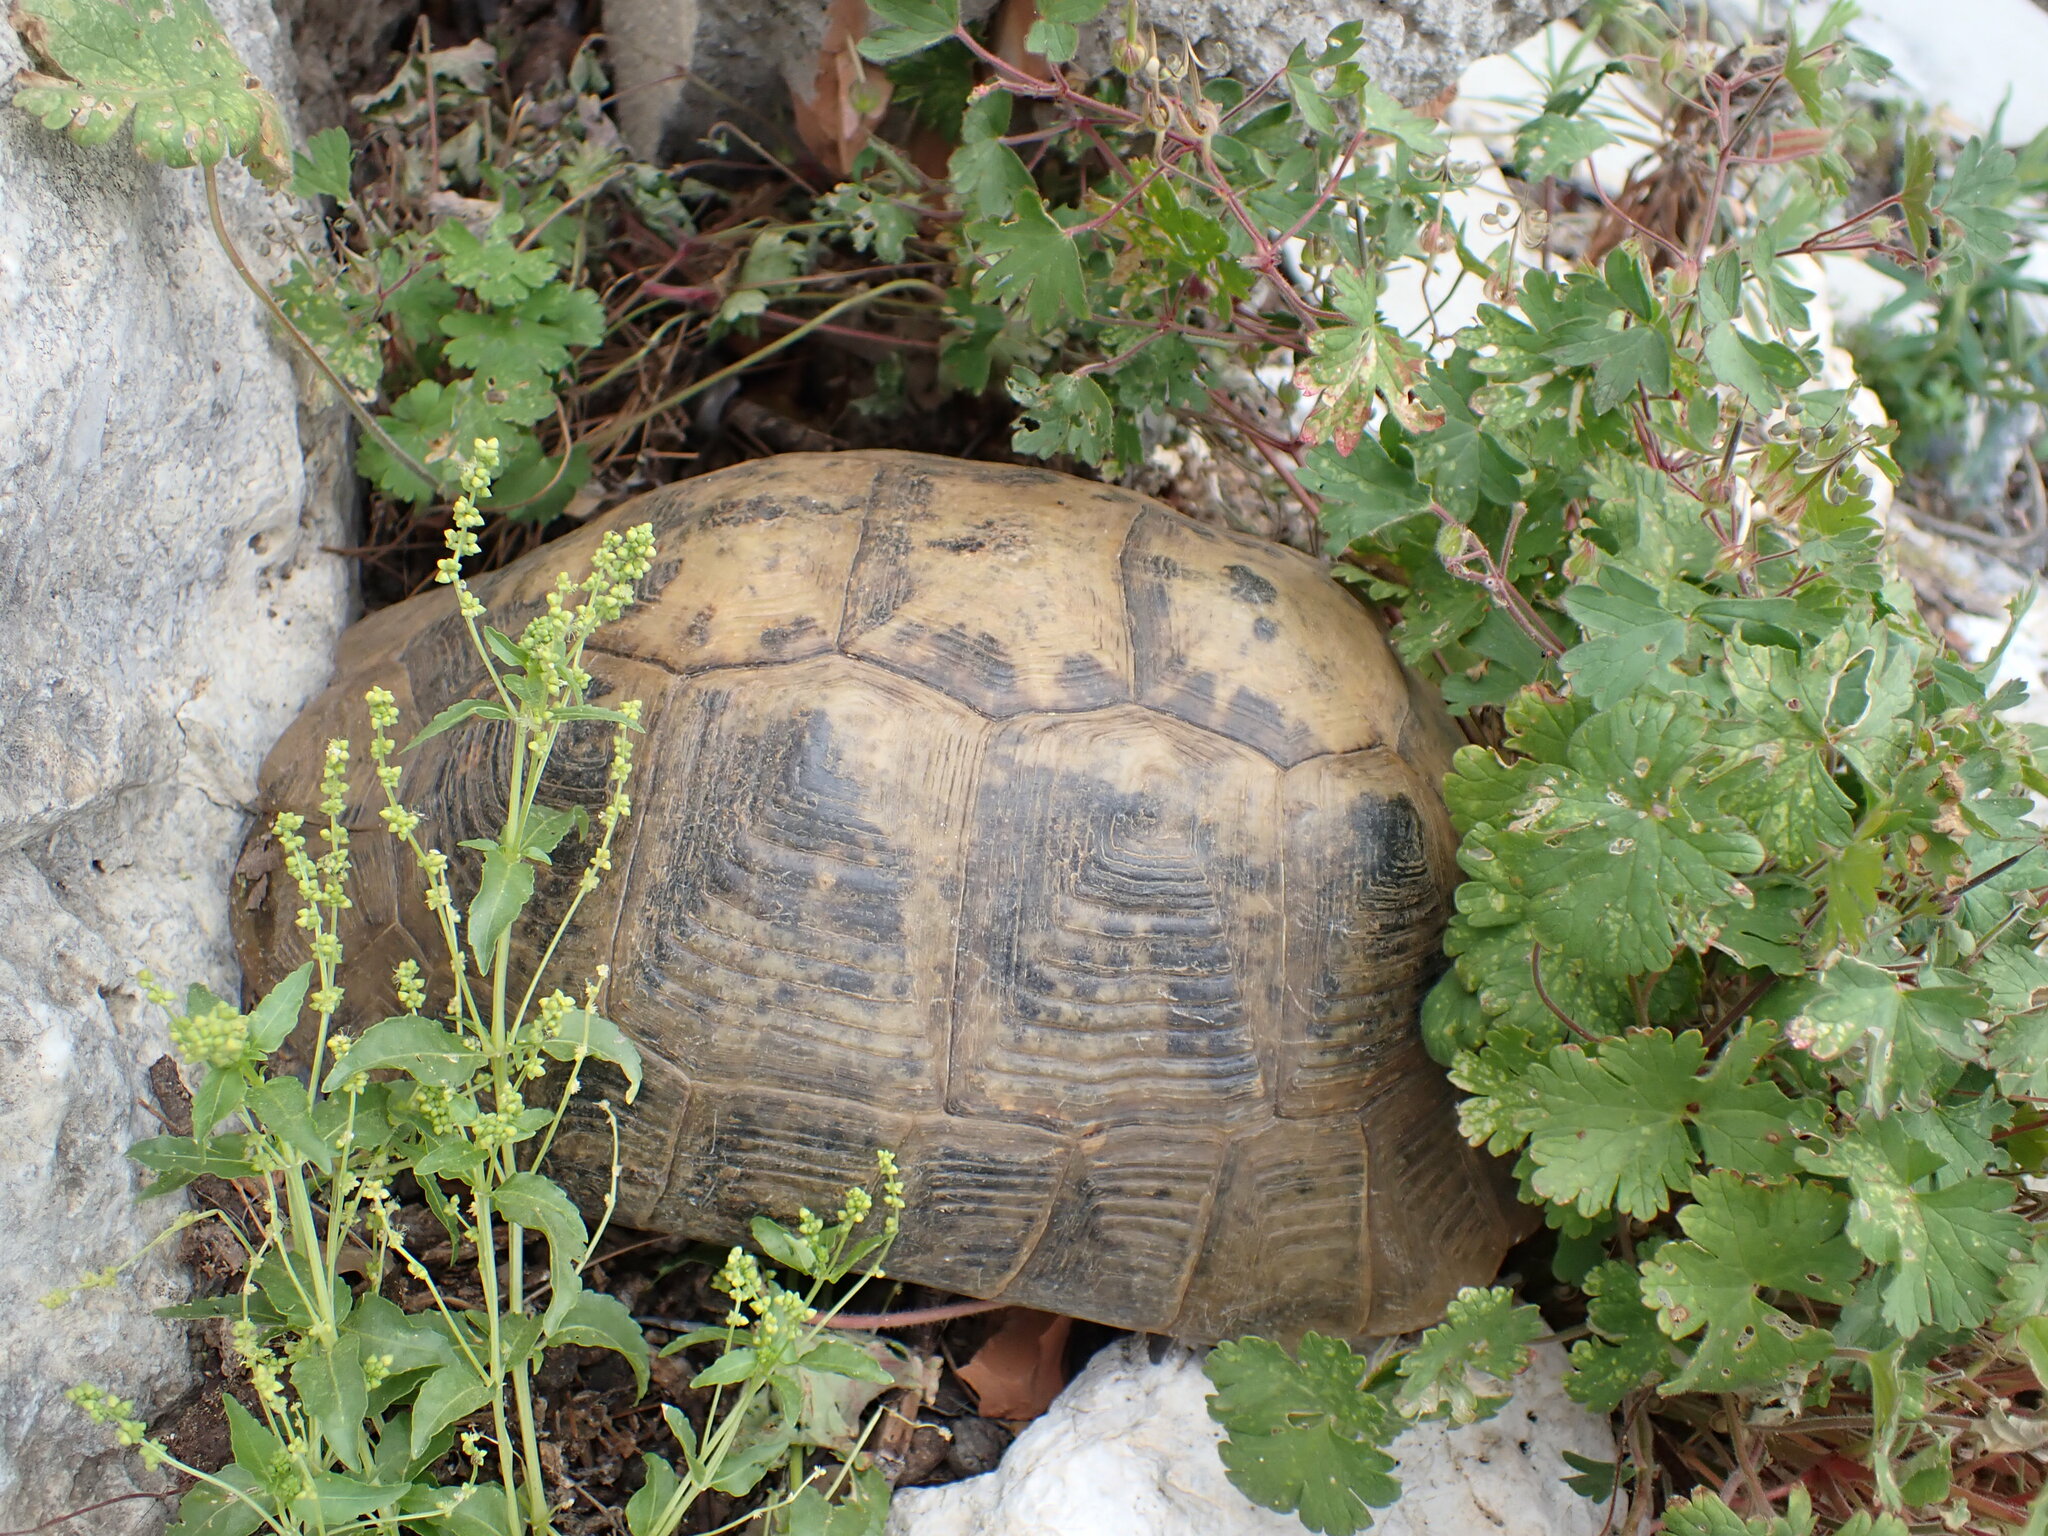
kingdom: Animalia
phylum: Chordata
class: Testudines
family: Testudinidae
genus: Testudo
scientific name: Testudo graeca
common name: Common tortoise
